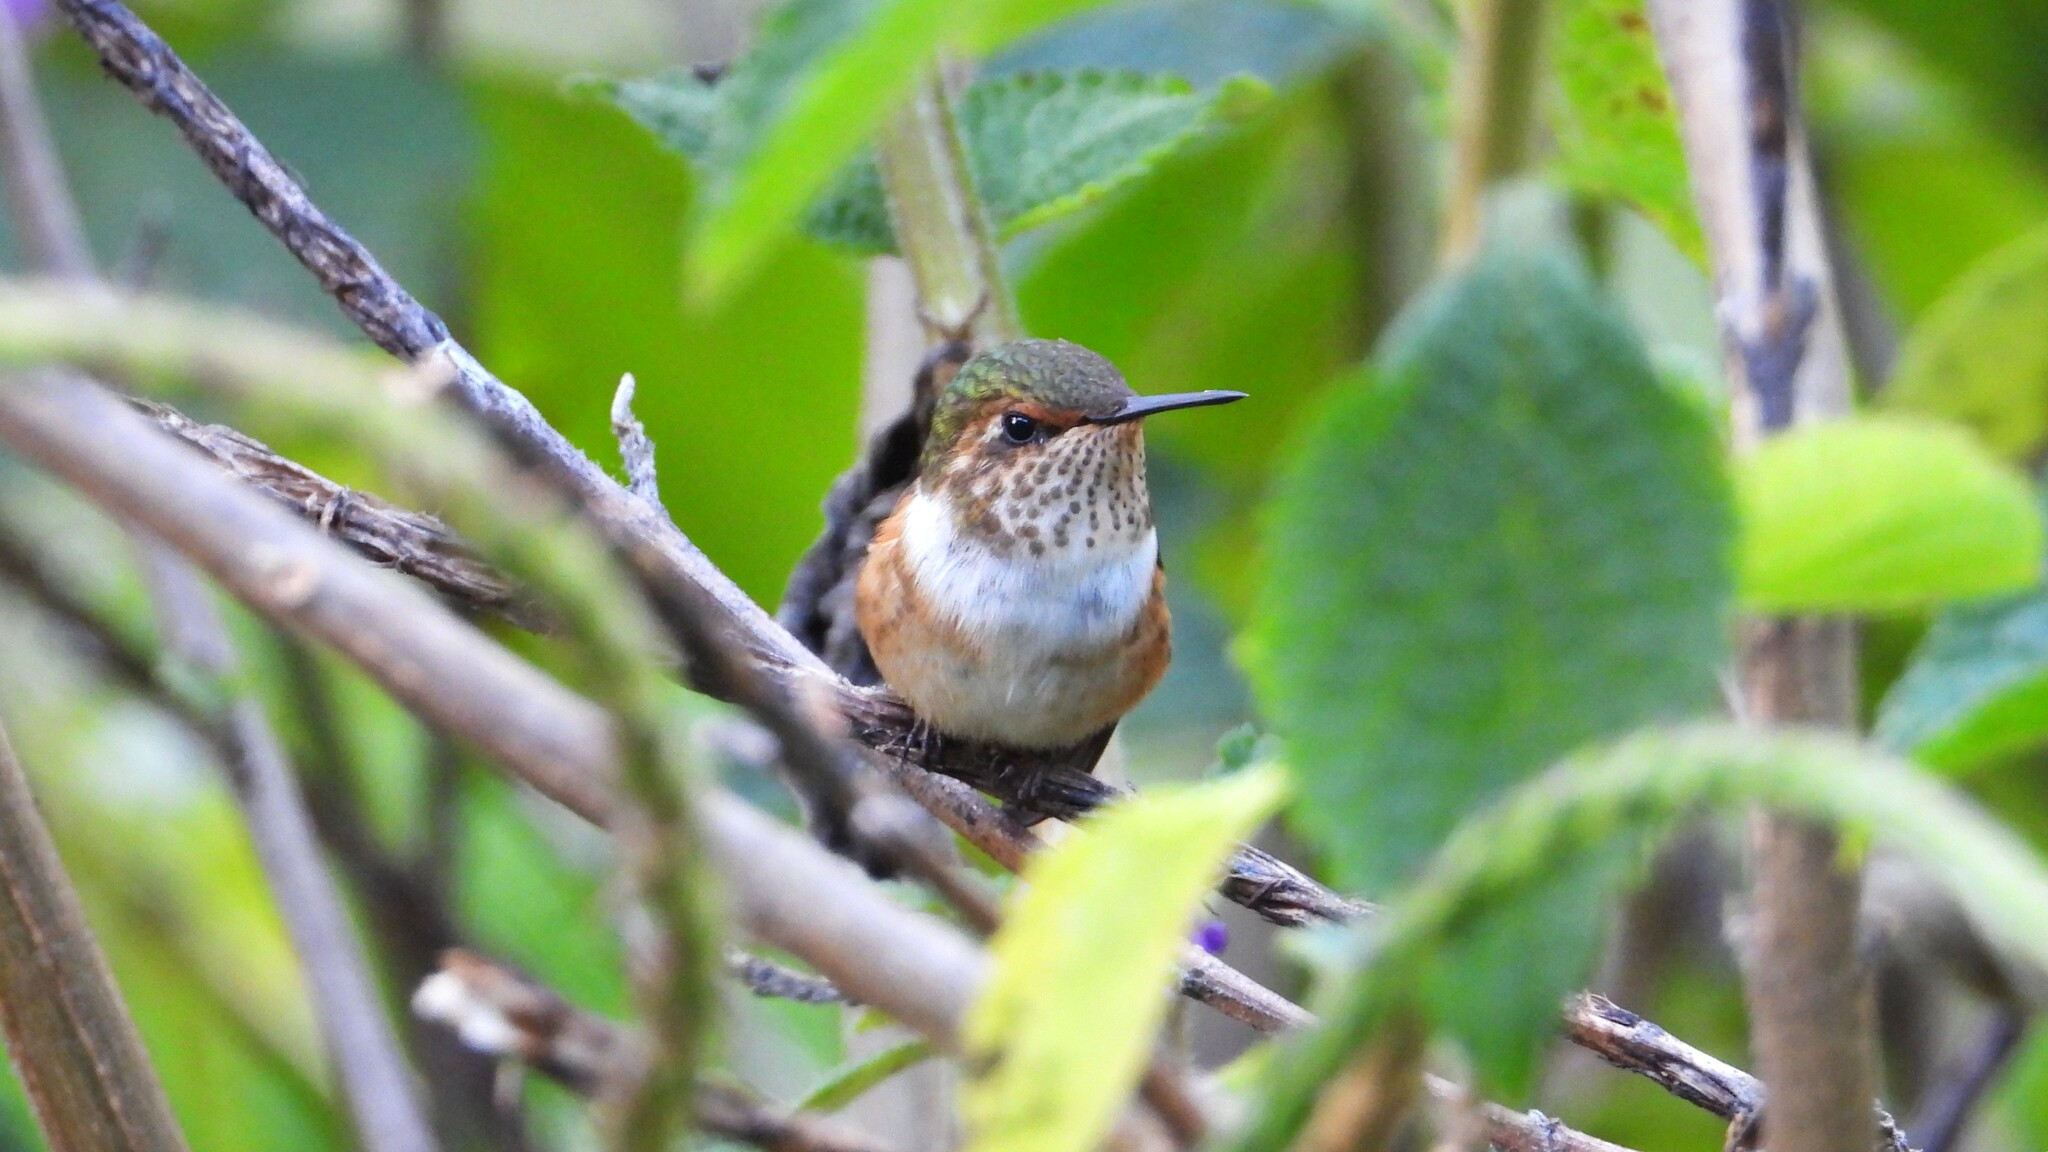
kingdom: Animalia
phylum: Chordata
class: Aves
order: Apodiformes
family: Trochilidae
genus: Selasphorus
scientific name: Selasphorus scintilla
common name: Scintillant hummingbird
